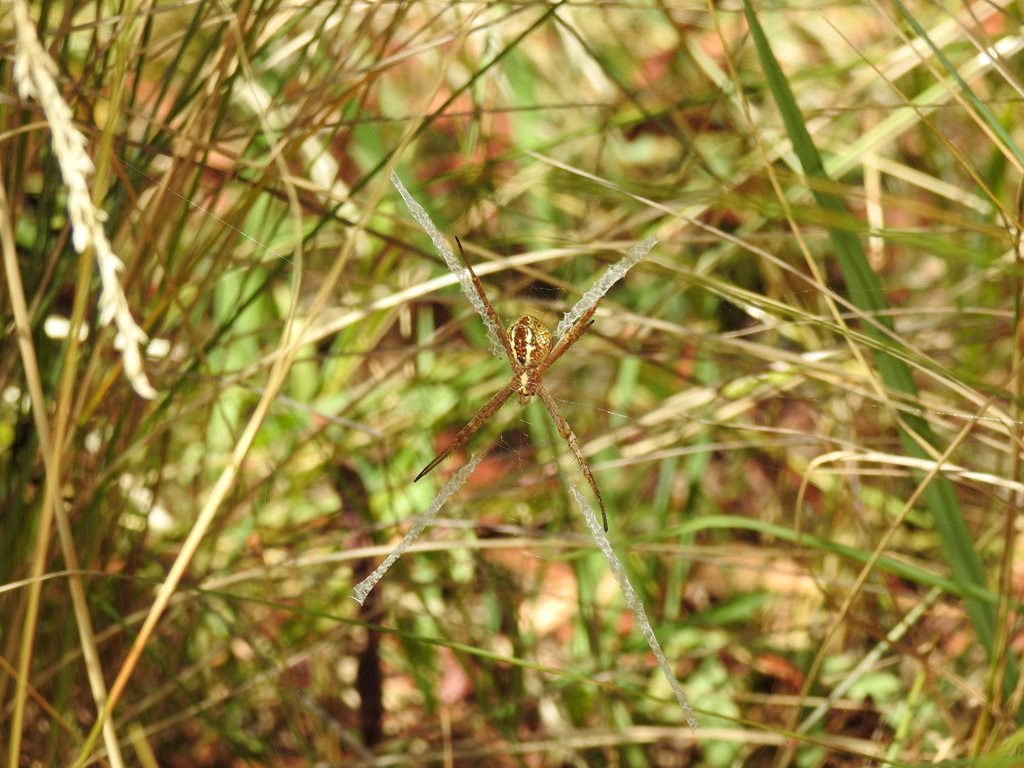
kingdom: Animalia
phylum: Arthropoda
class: Arachnida
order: Araneae
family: Araneidae
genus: Argiope
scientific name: Argiope keyserlingi
